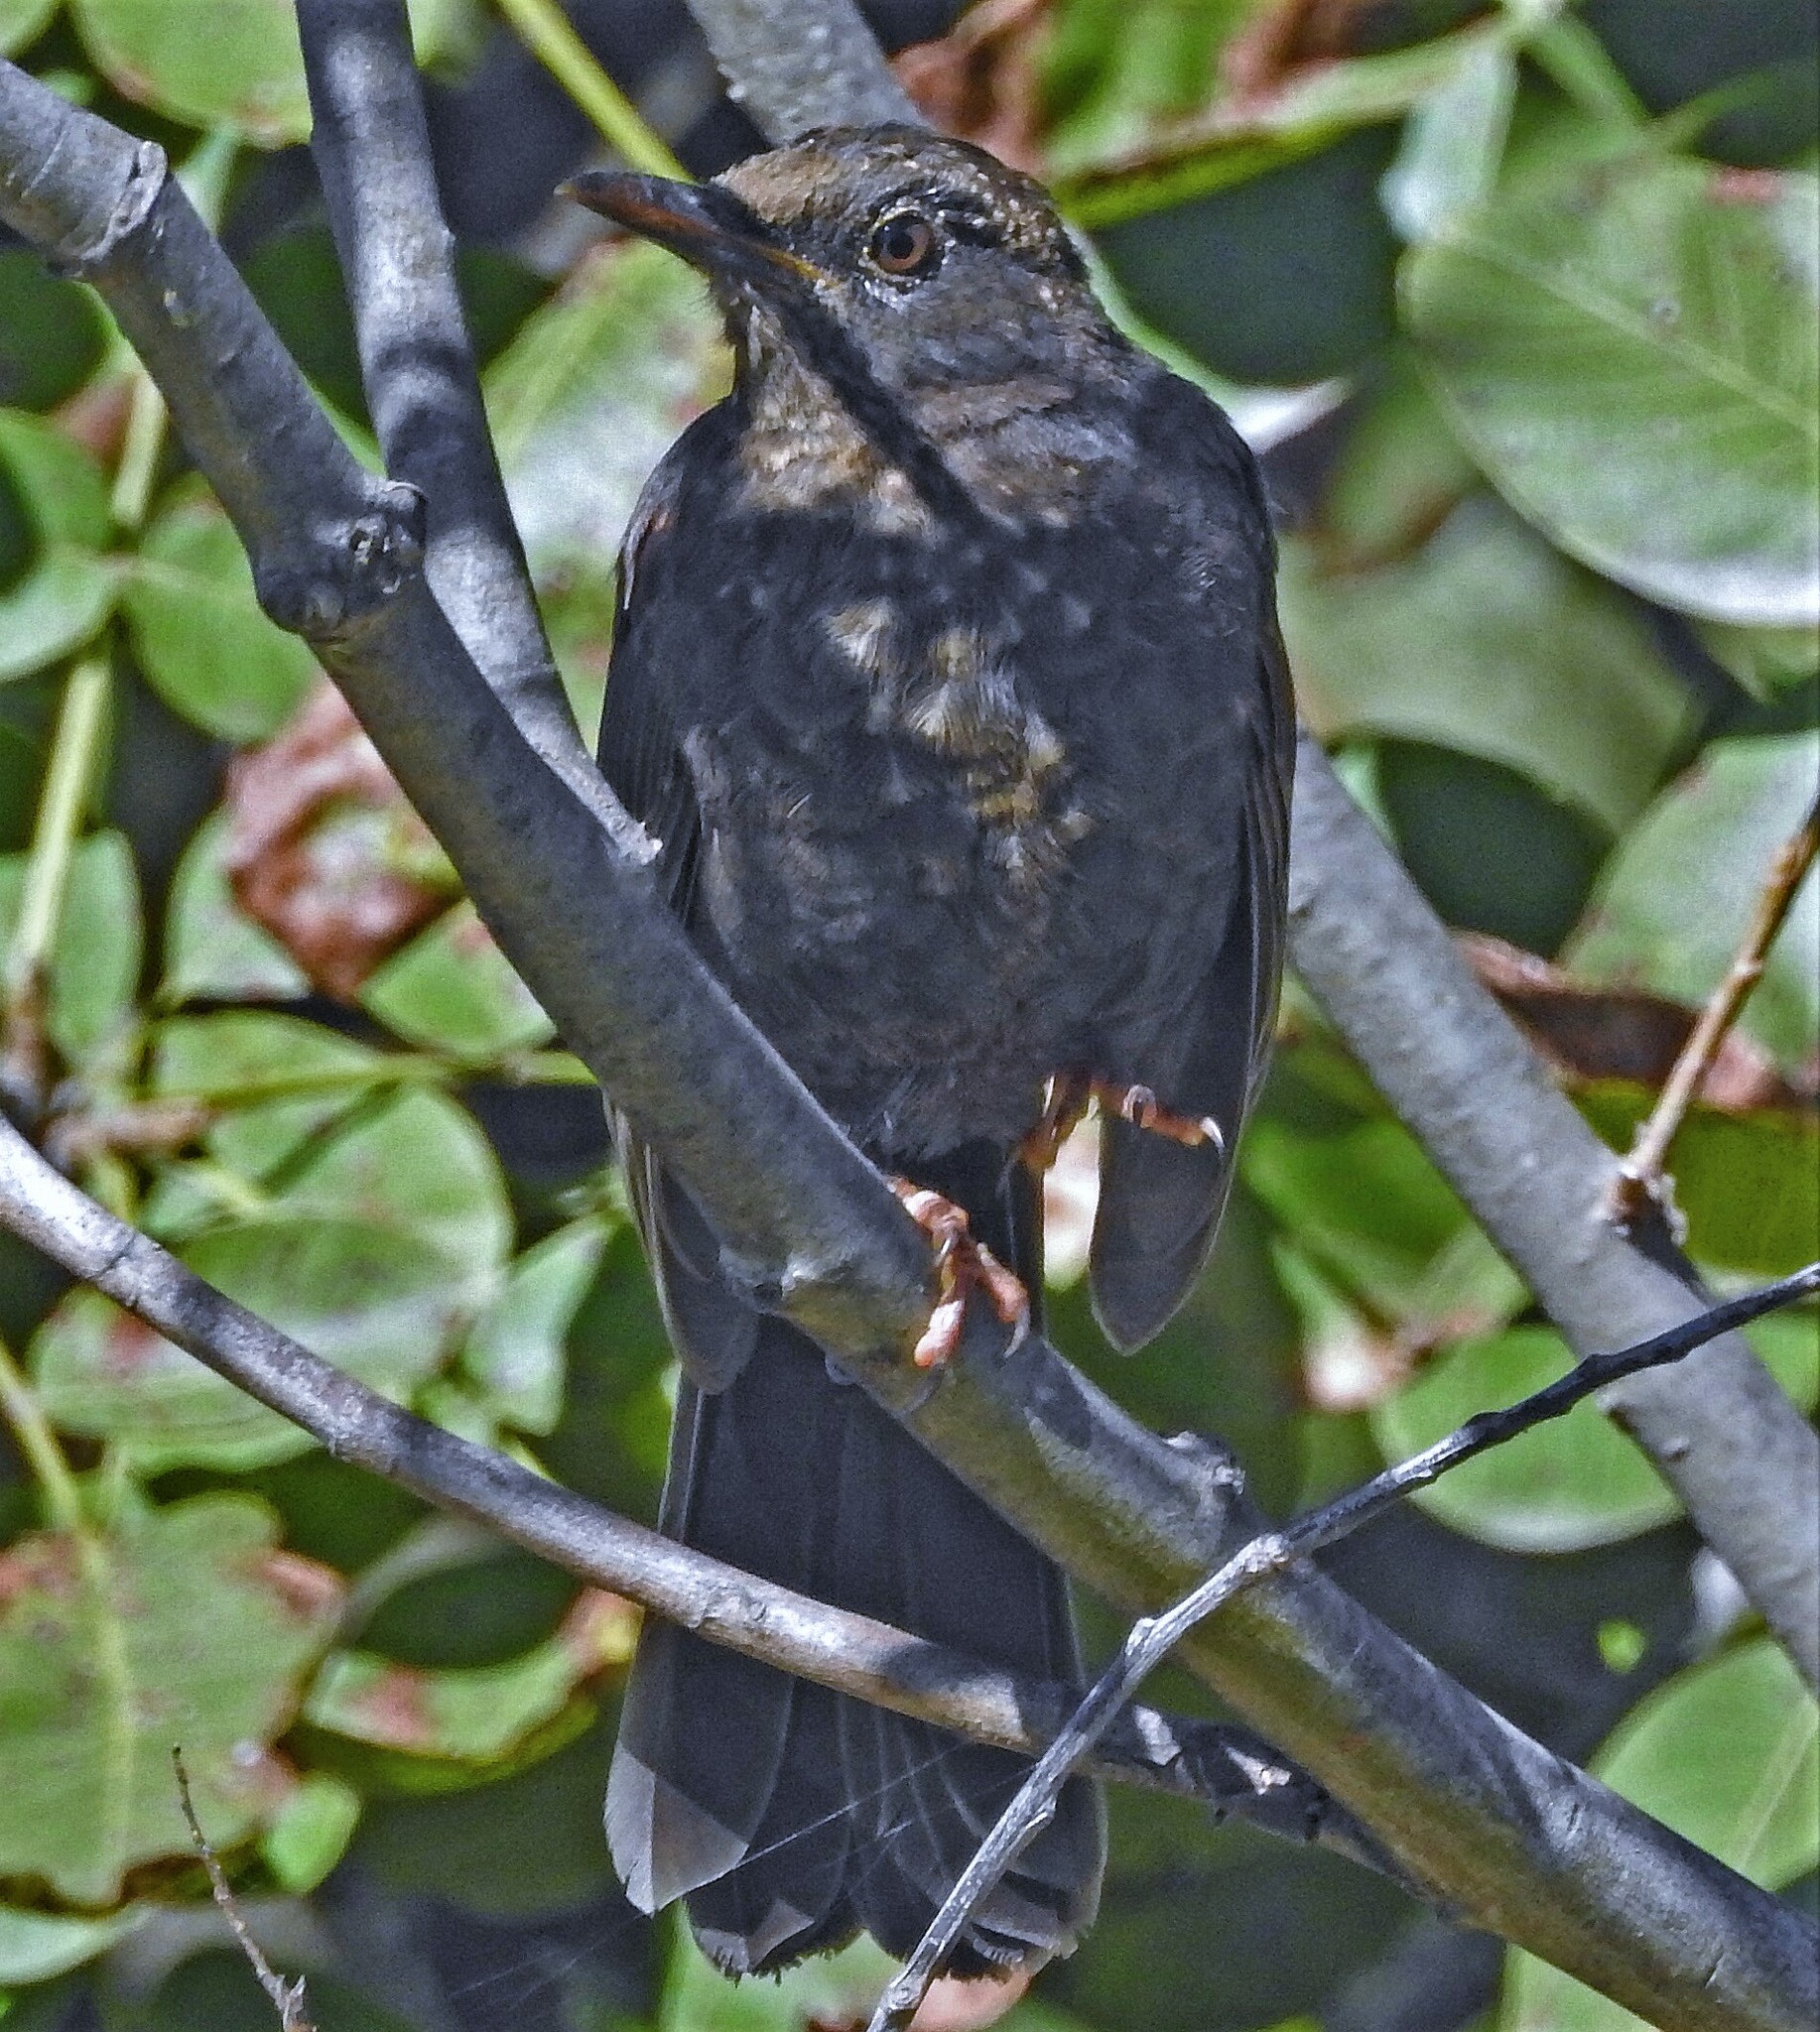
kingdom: Animalia
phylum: Chordata
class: Aves
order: Passeriformes
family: Turdidae
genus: Turdus
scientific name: Turdus chiguanco
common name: Chiguanco thrush
